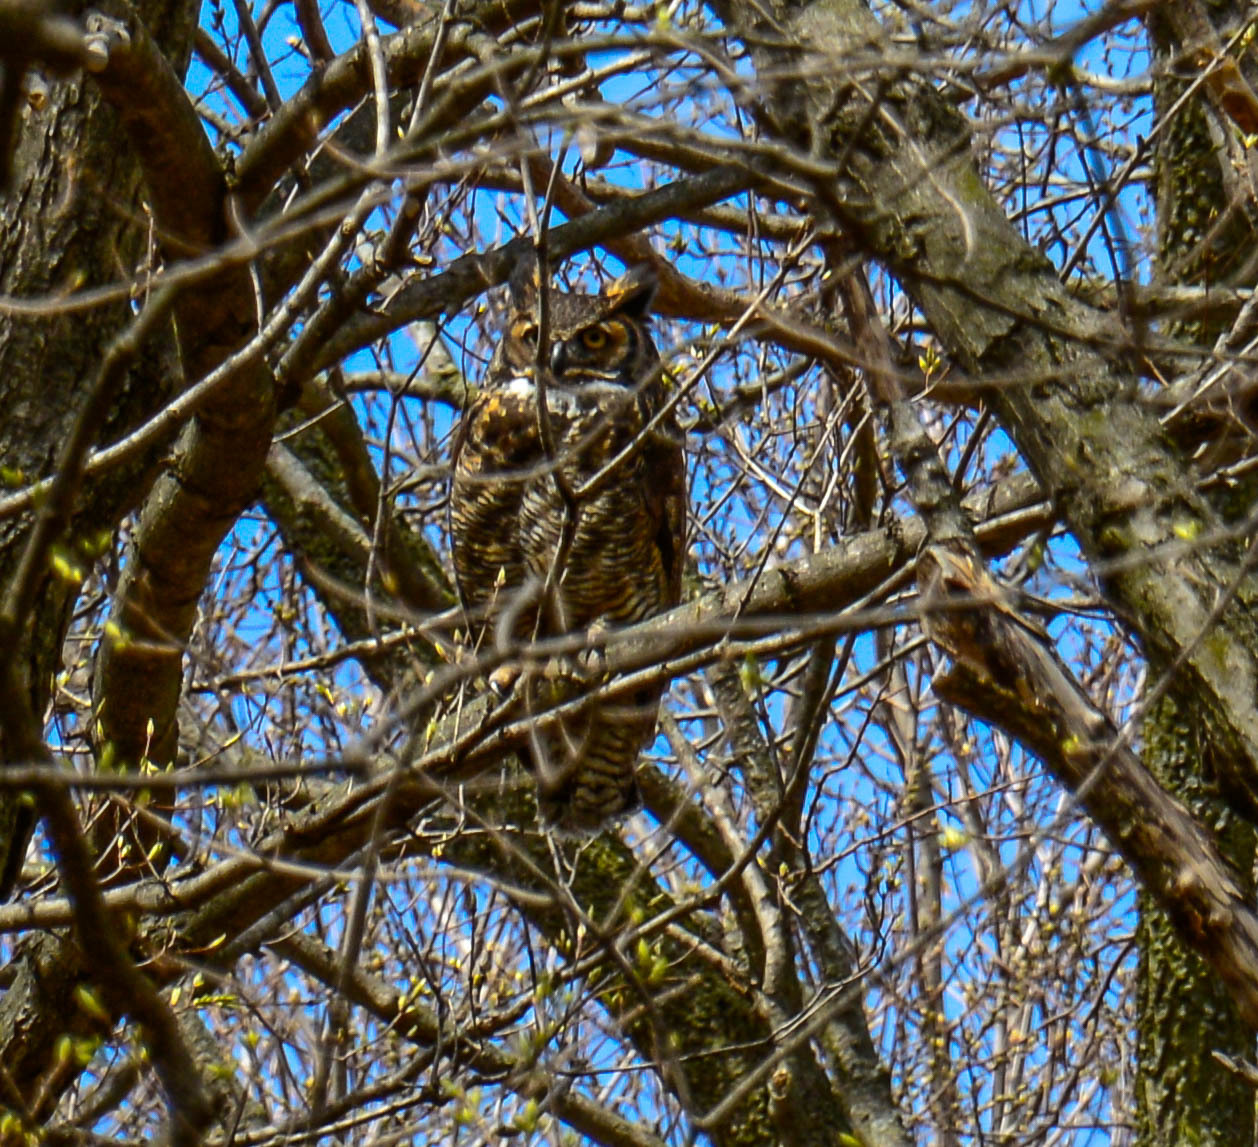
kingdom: Animalia
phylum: Chordata
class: Aves
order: Strigiformes
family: Strigidae
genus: Bubo
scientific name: Bubo virginianus
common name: Great horned owl
